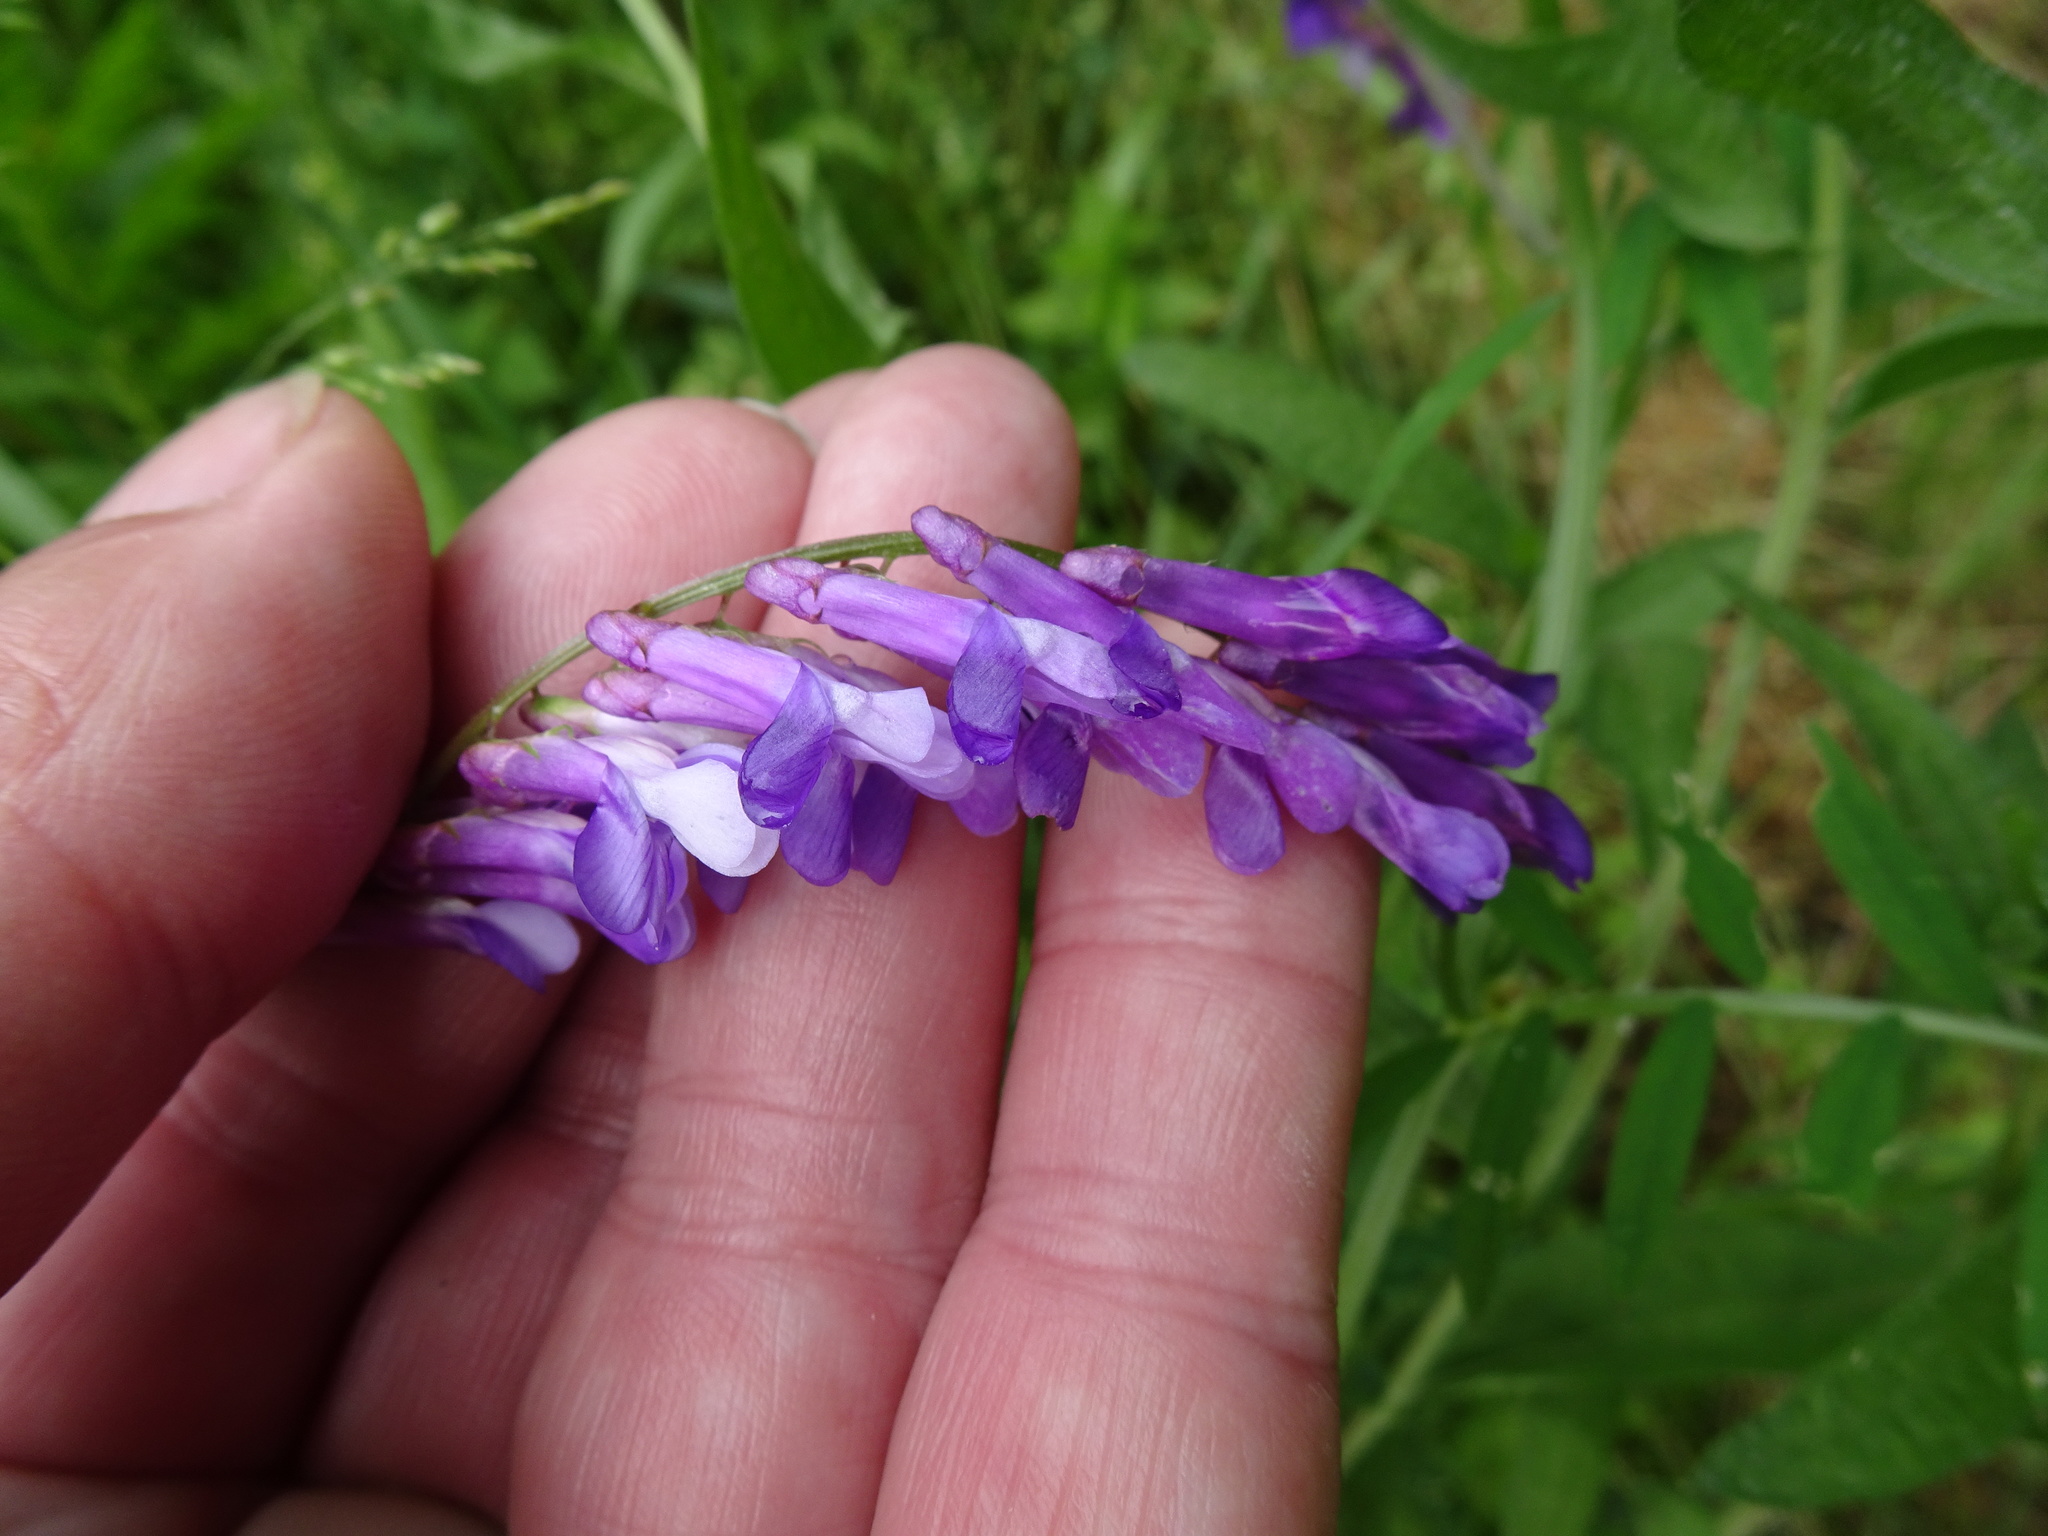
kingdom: Plantae
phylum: Tracheophyta
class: Magnoliopsida
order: Fabales
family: Fabaceae
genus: Vicia
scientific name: Vicia villosa
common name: Fodder vetch
